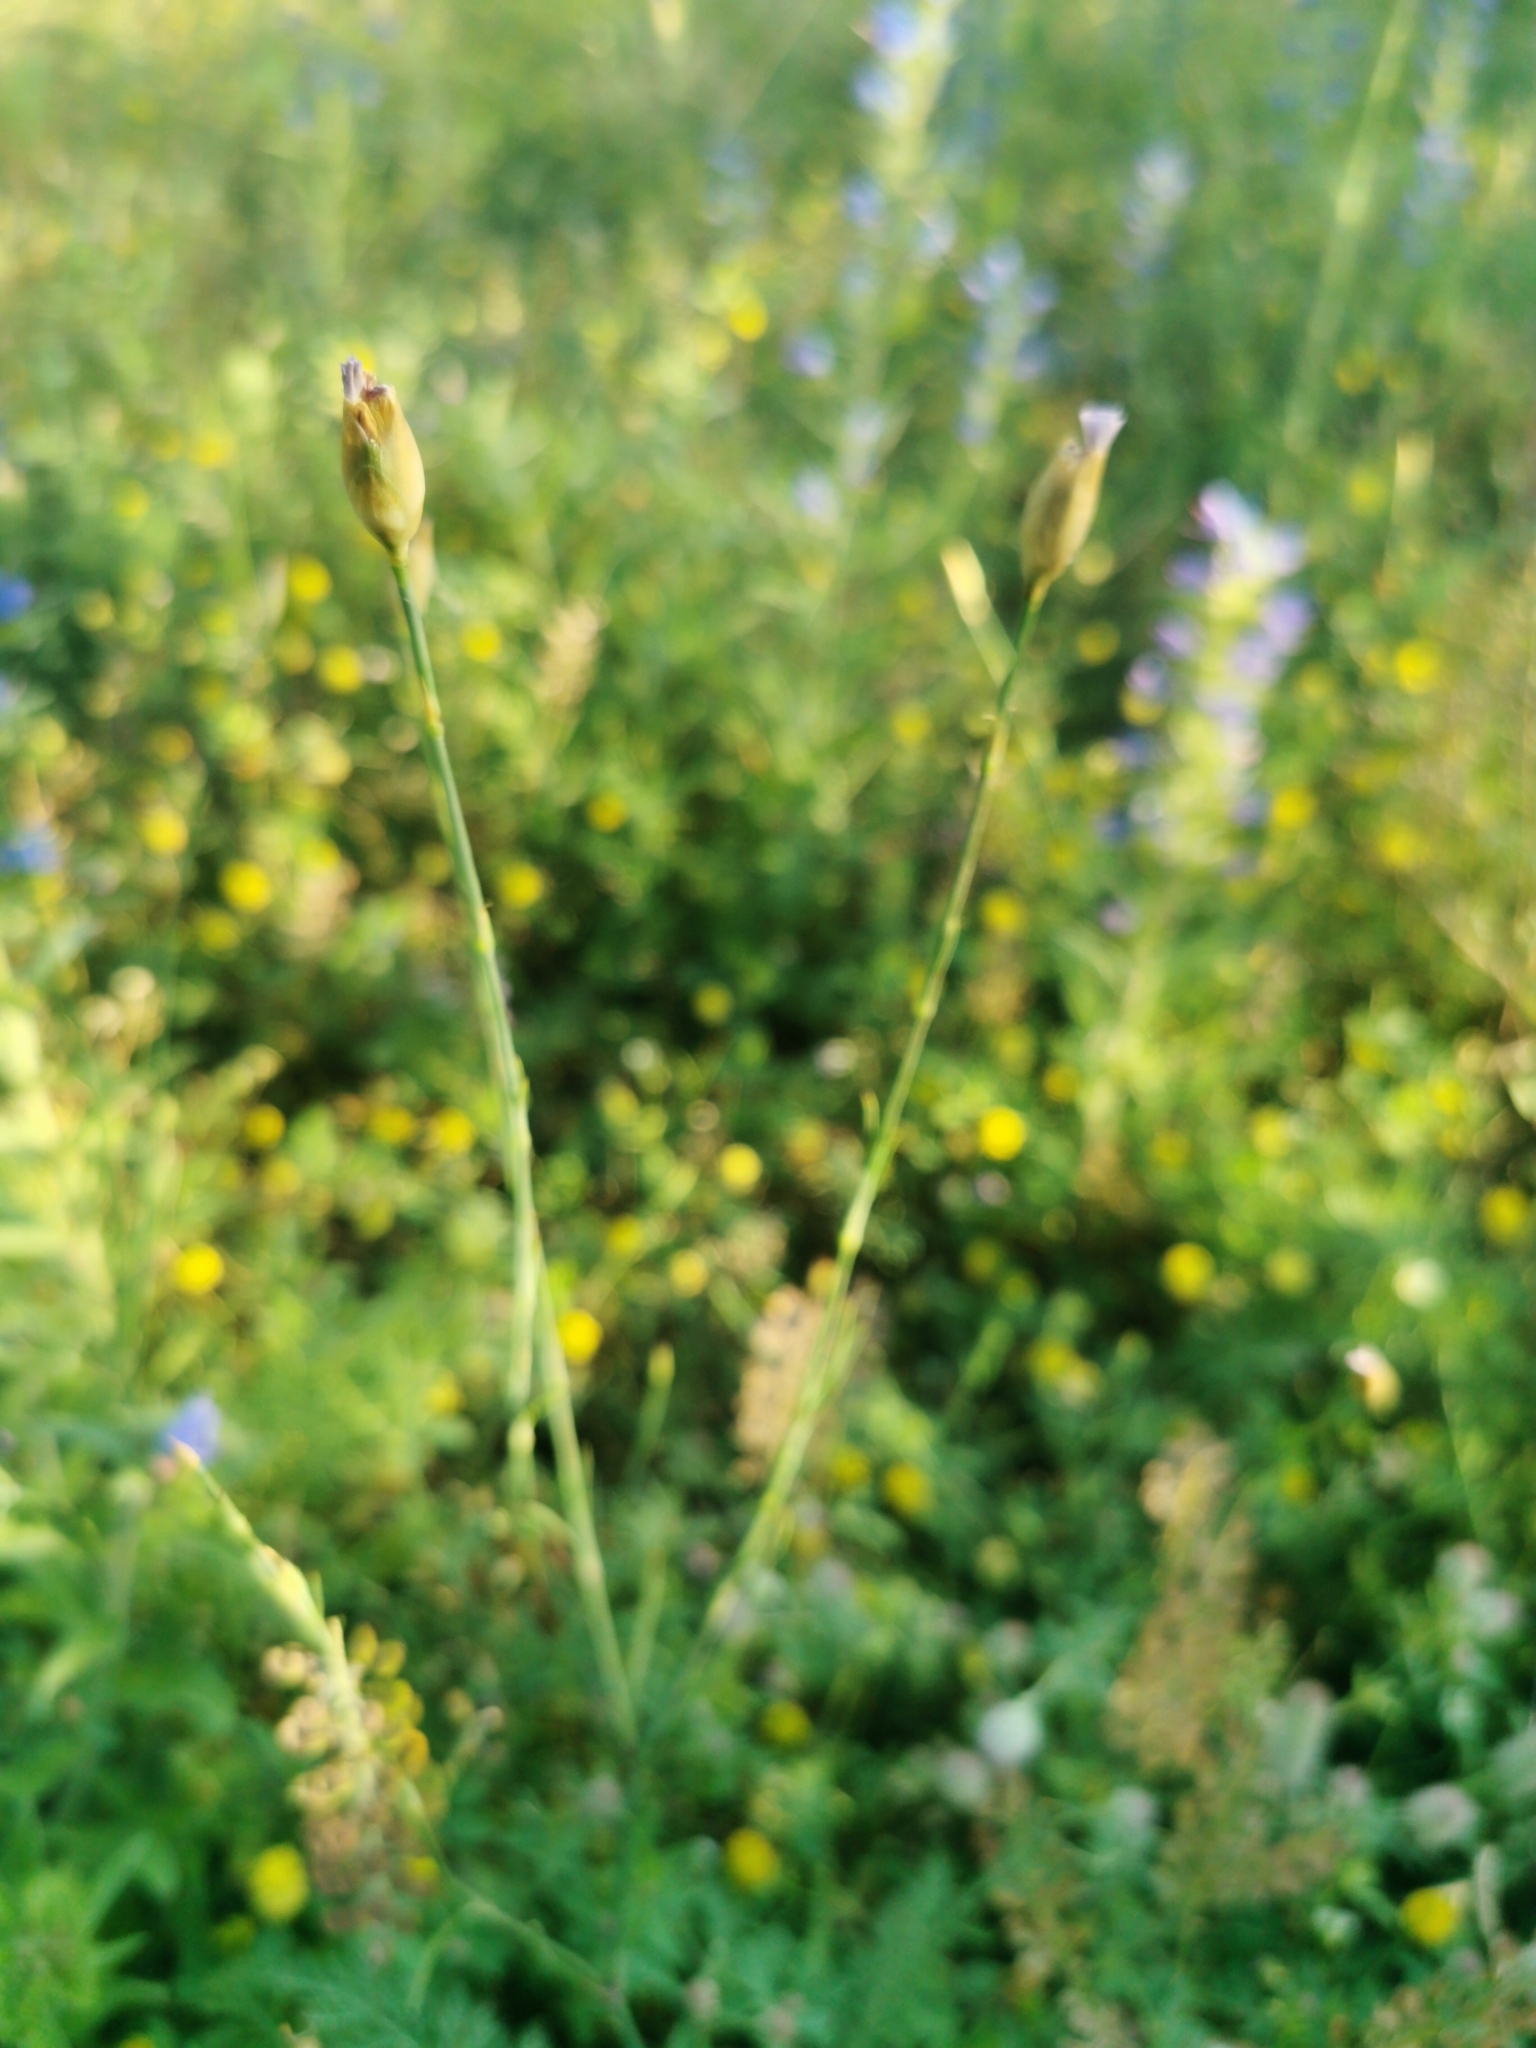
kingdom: Plantae
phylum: Tracheophyta
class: Magnoliopsida
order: Caryophyllales
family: Caryophyllaceae
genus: Petrorhagia
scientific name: Petrorhagia prolifera
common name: Proliferous pink
